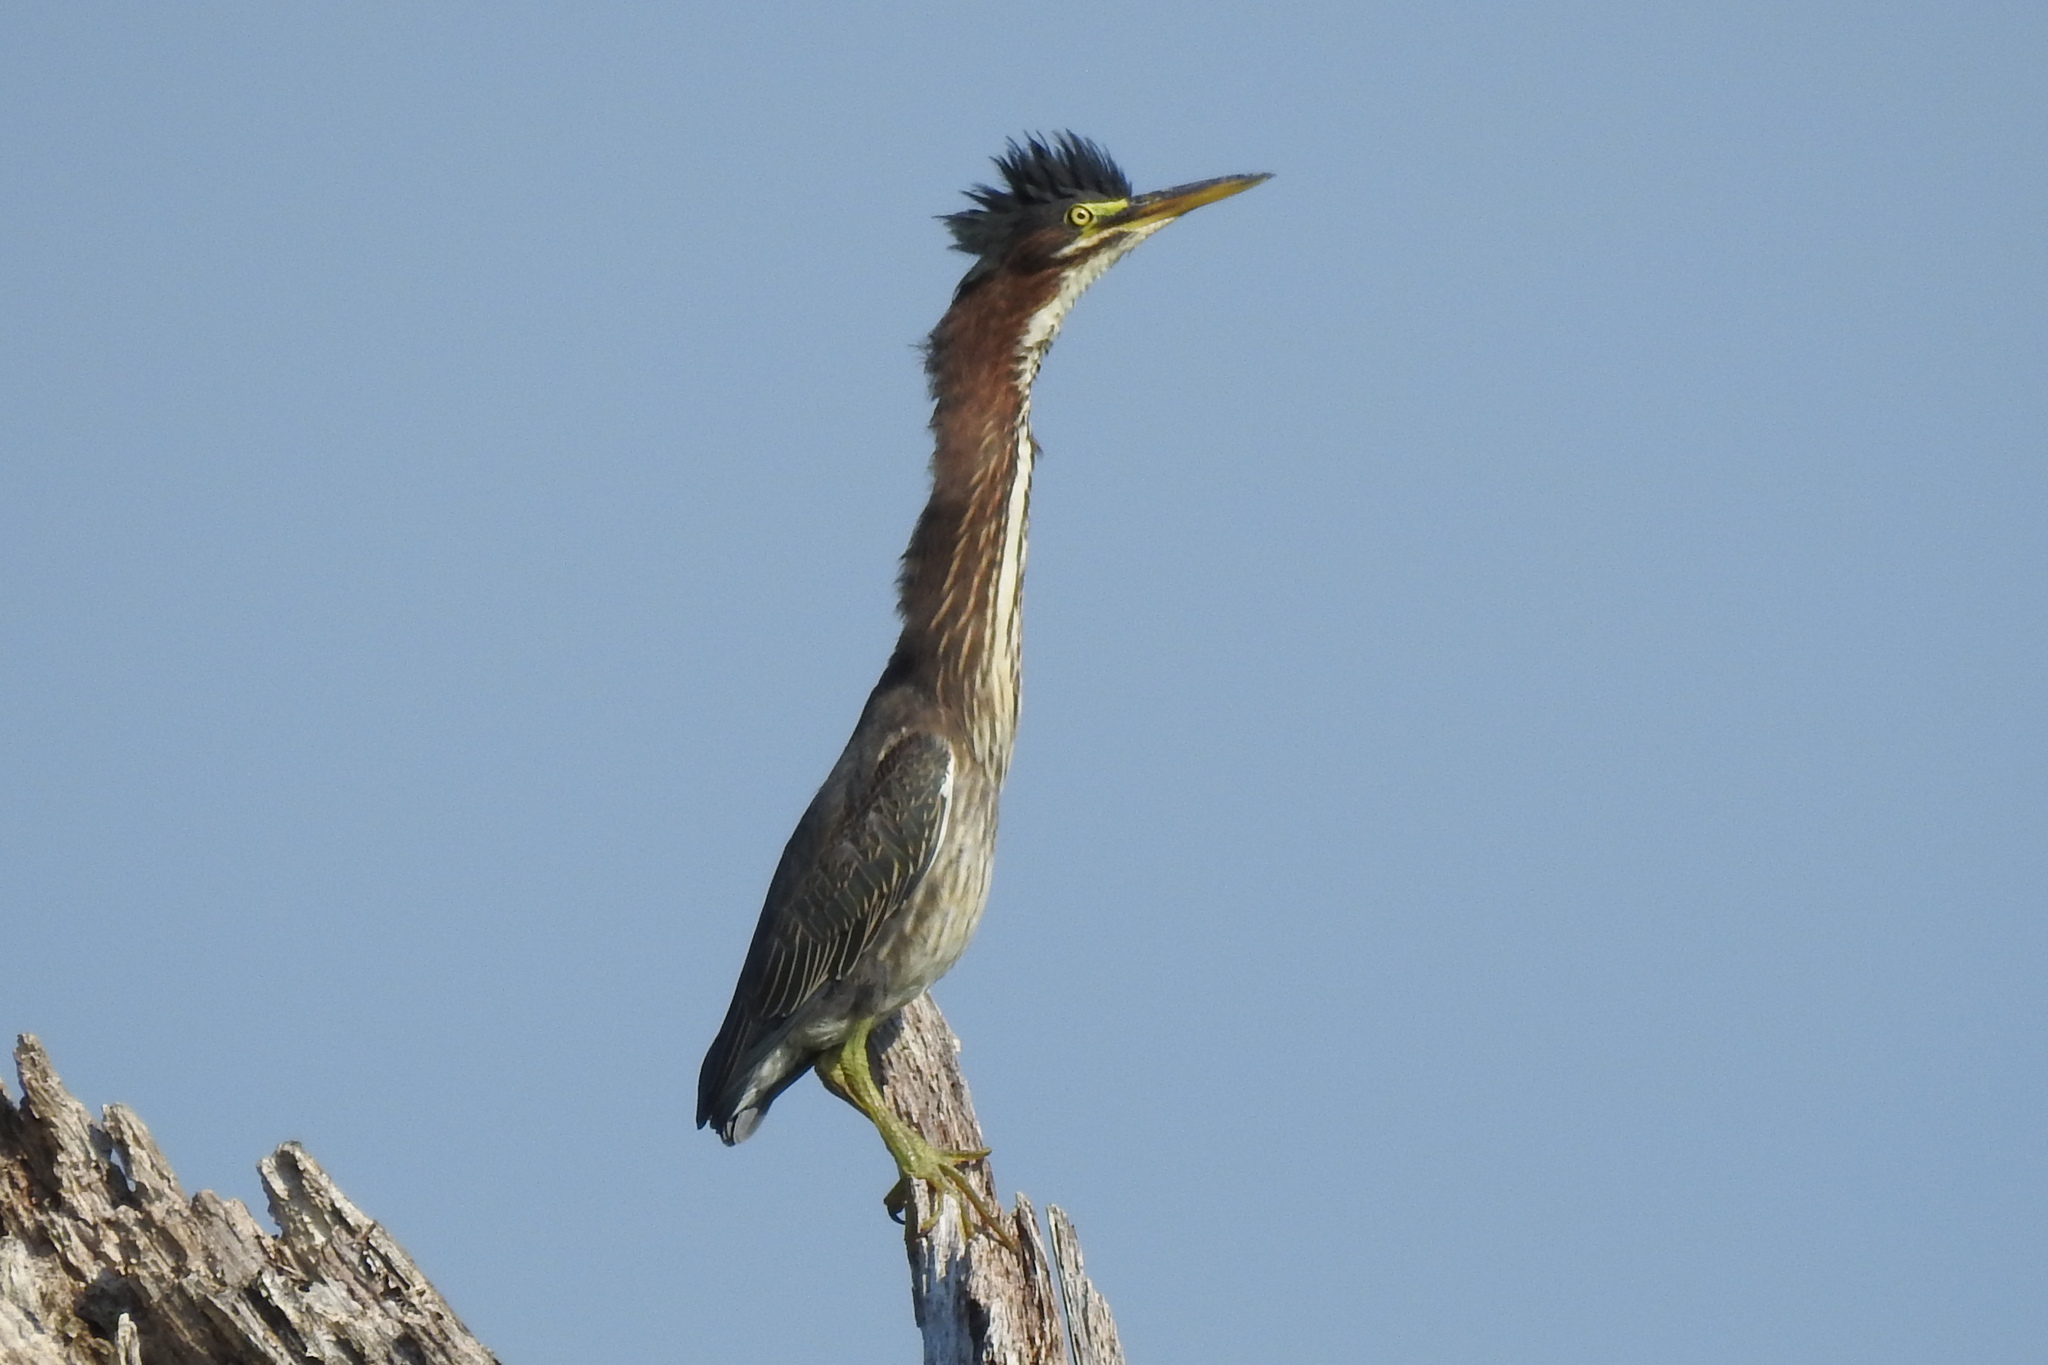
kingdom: Animalia
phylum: Chordata
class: Aves
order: Pelecaniformes
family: Ardeidae
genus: Butorides
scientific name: Butorides virescens
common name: Green heron
